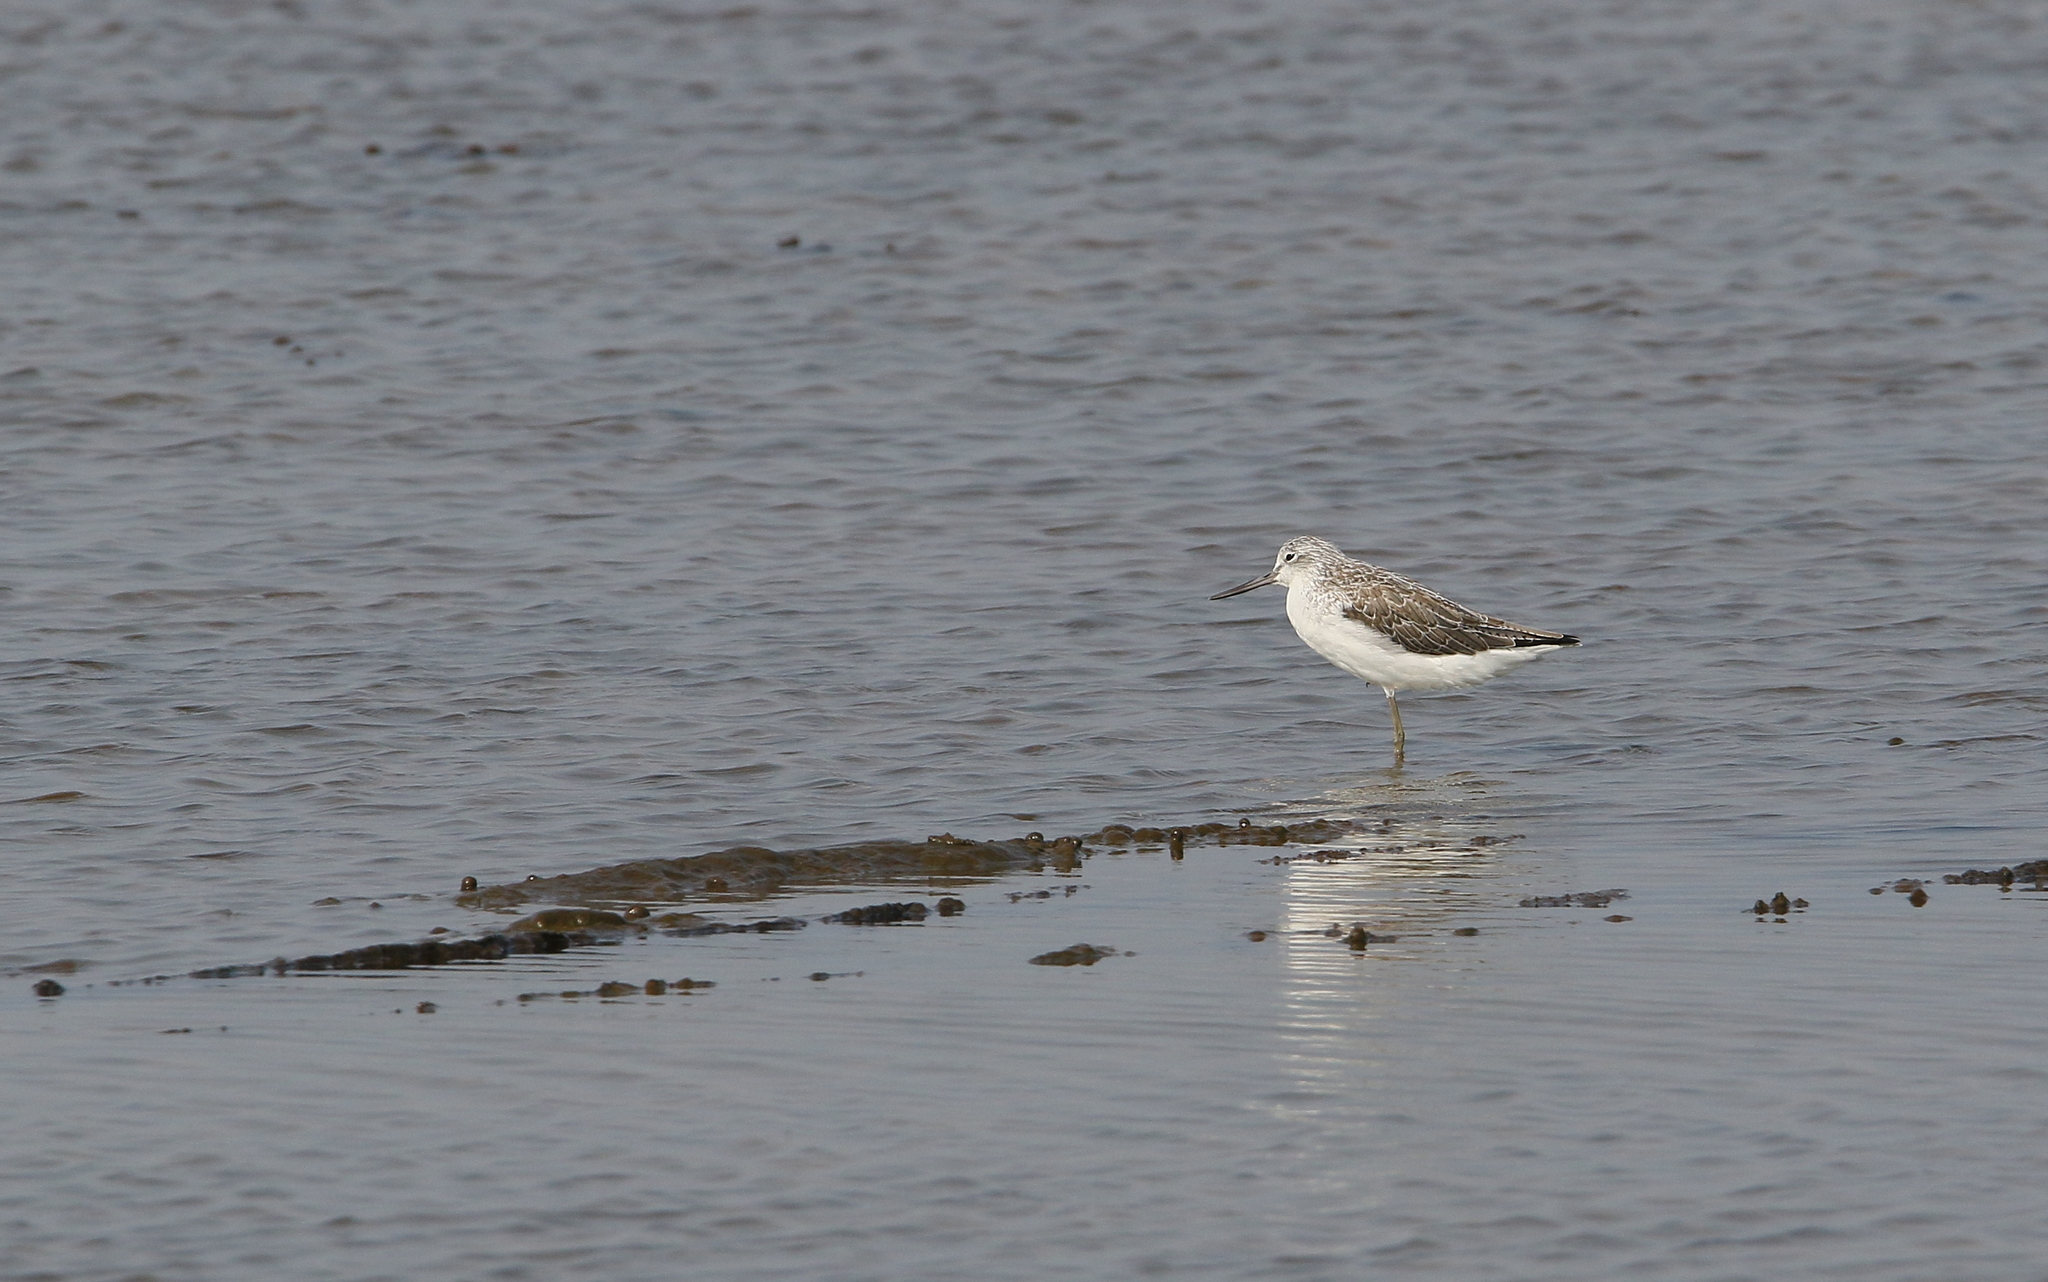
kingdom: Animalia
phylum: Chordata
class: Aves
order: Charadriiformes
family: Scolopacidae
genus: Tringa
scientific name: Tringa nebularia
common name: Common greenshank
